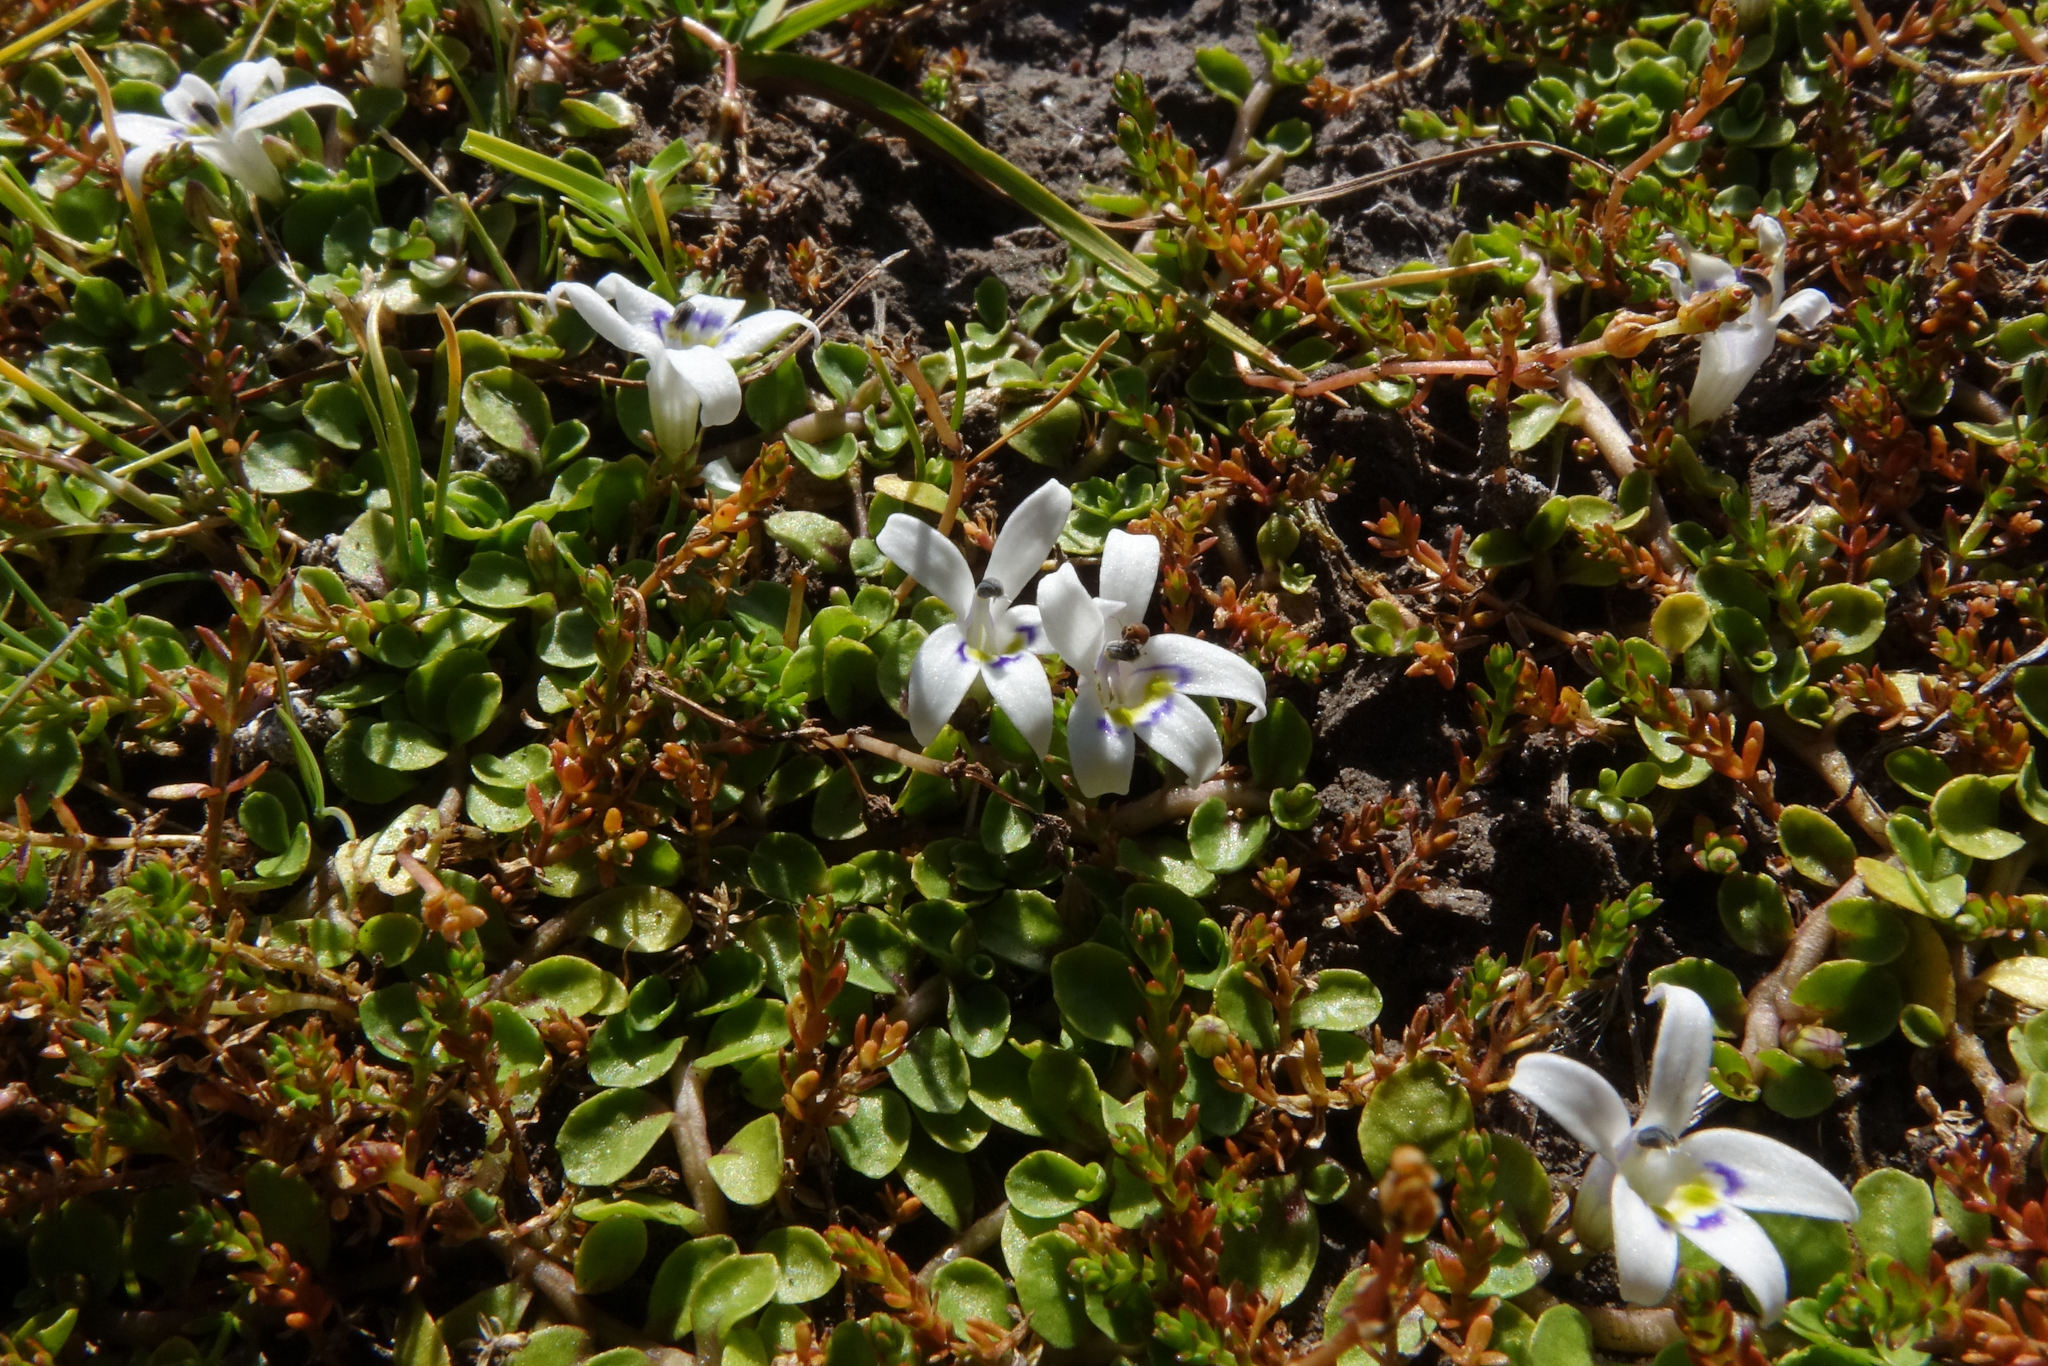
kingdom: Plantae
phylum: Tracheophyta
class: Magnoliopsida
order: Asterales
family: Campanulaceae
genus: Isotoma
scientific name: Isotoma rivalis
